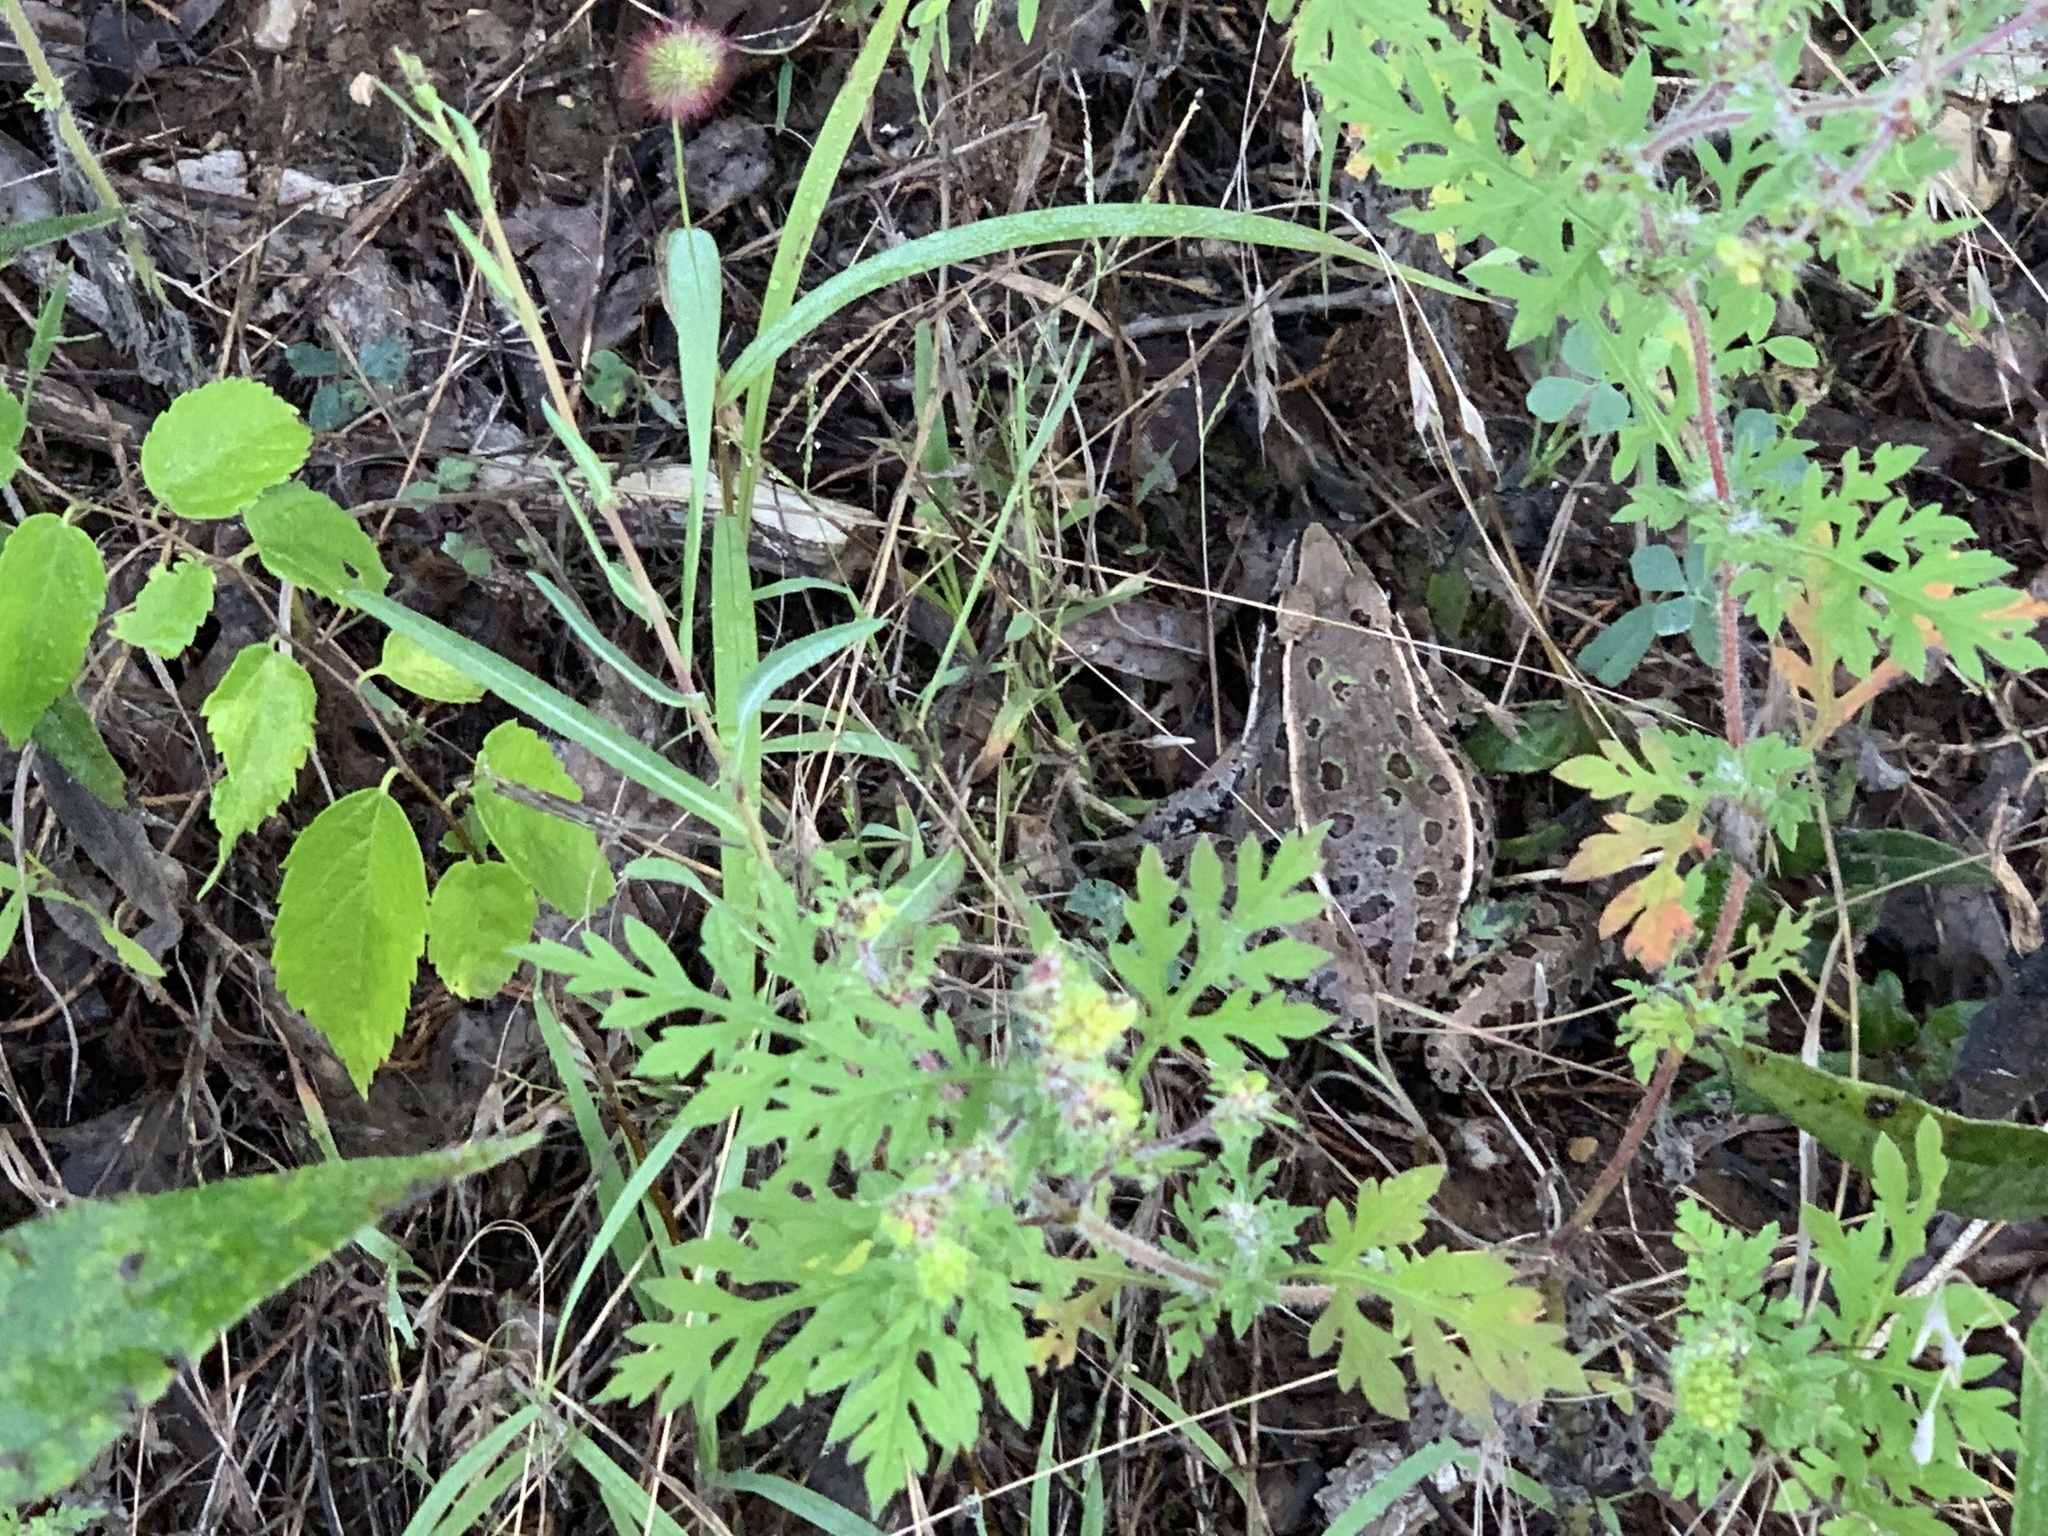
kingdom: Animalia
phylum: Chordata
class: Amphibia
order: Anura
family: Ranidae
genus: Lithobates
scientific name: Lithobates sphenocephalus
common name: Southern leopard frog
